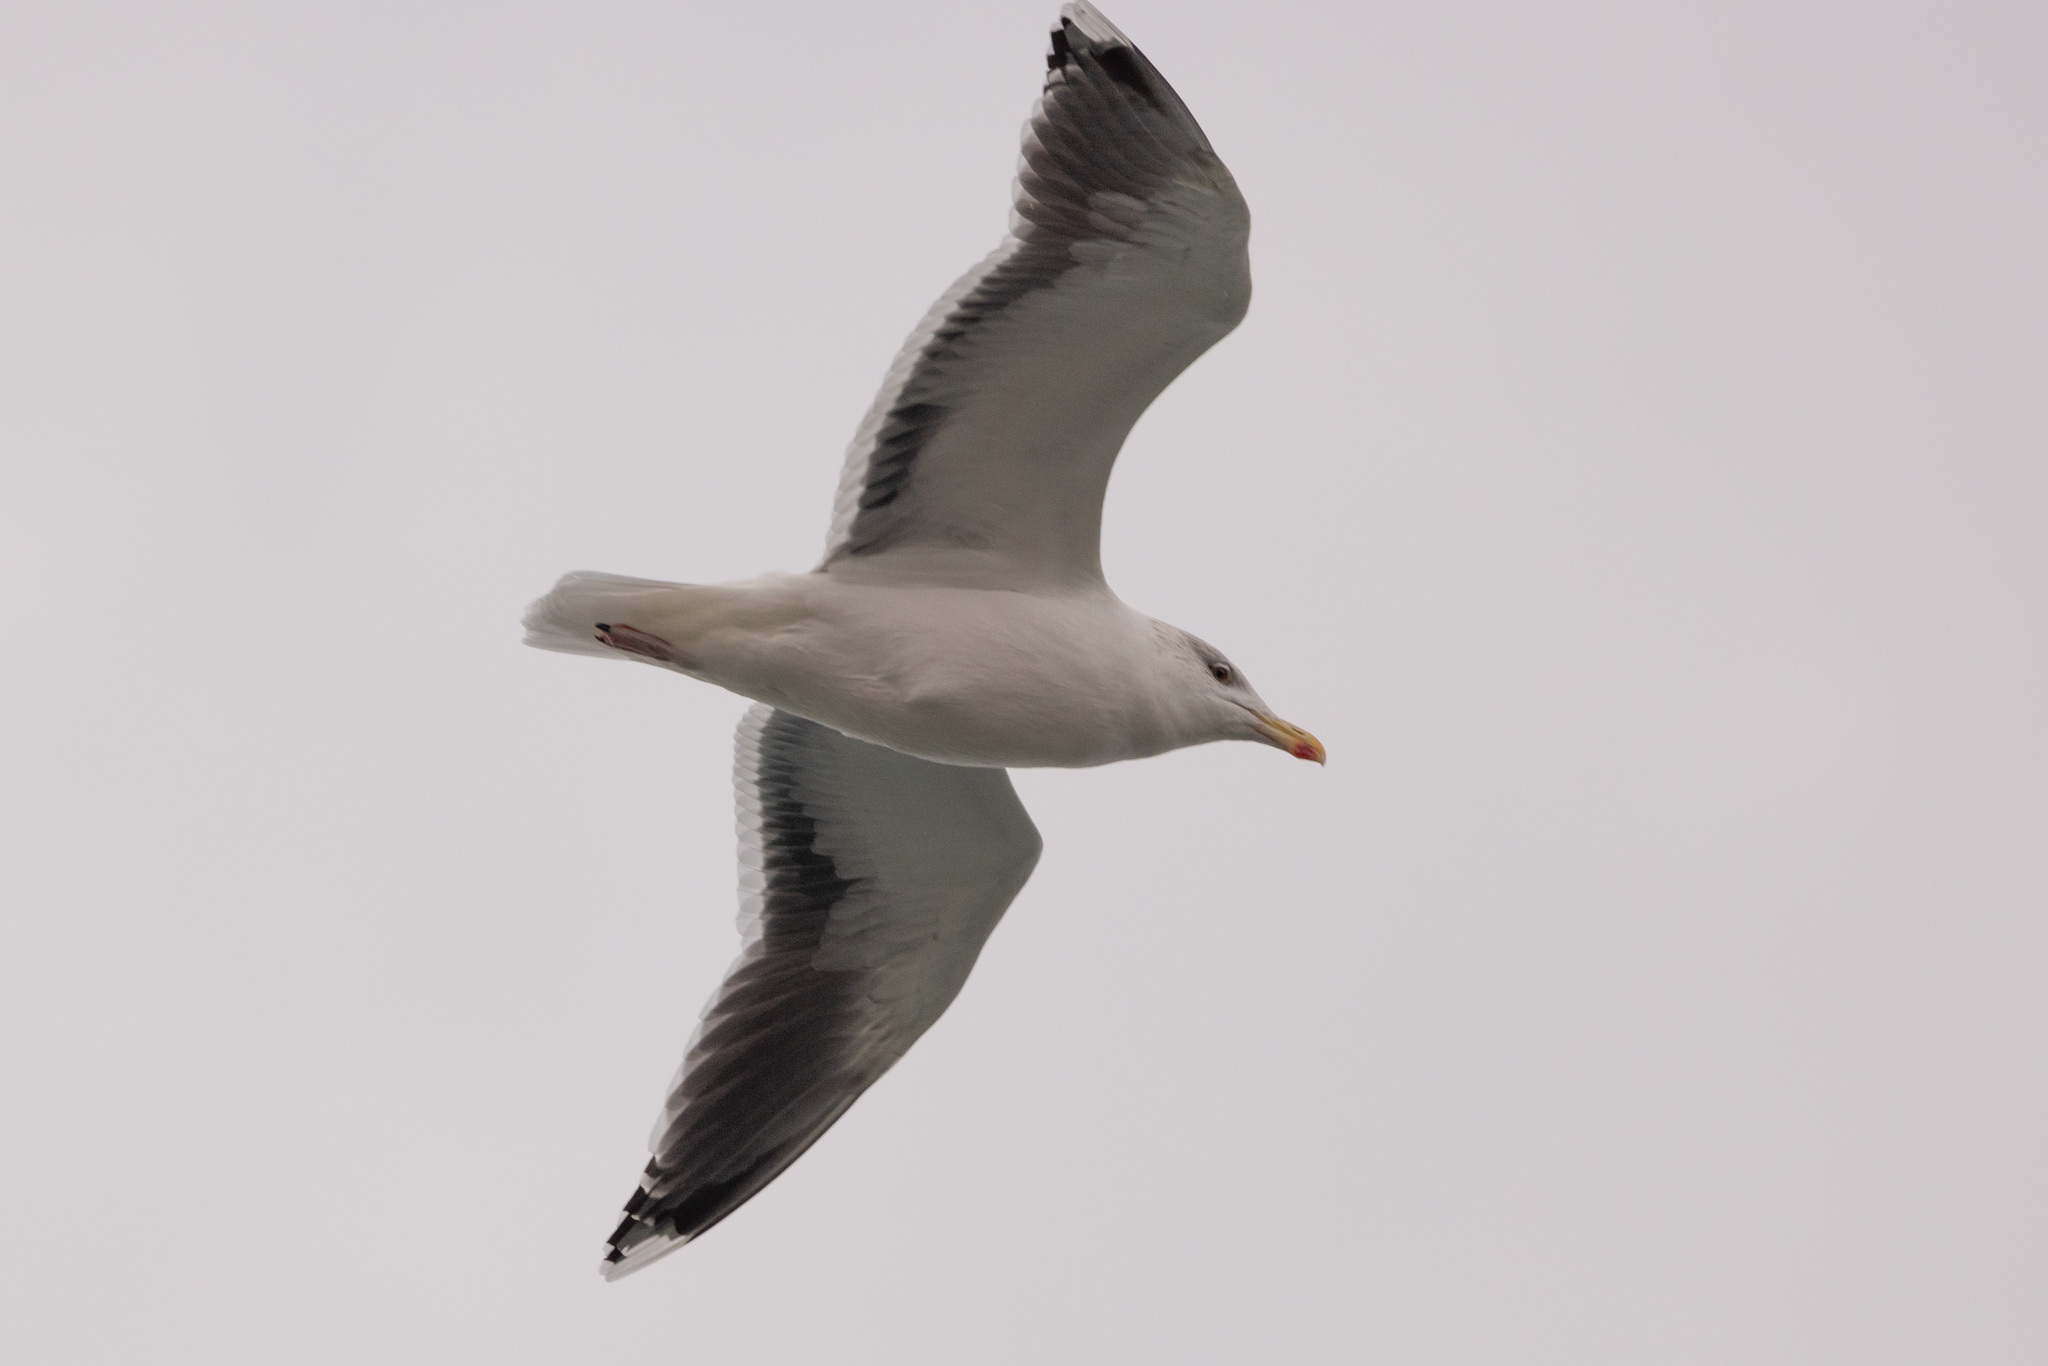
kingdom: Animalia
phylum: Chordata
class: Aves
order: Charadriiformes
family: Laridae
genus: Larus
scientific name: Larus marinus
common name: Great black-backed gull
